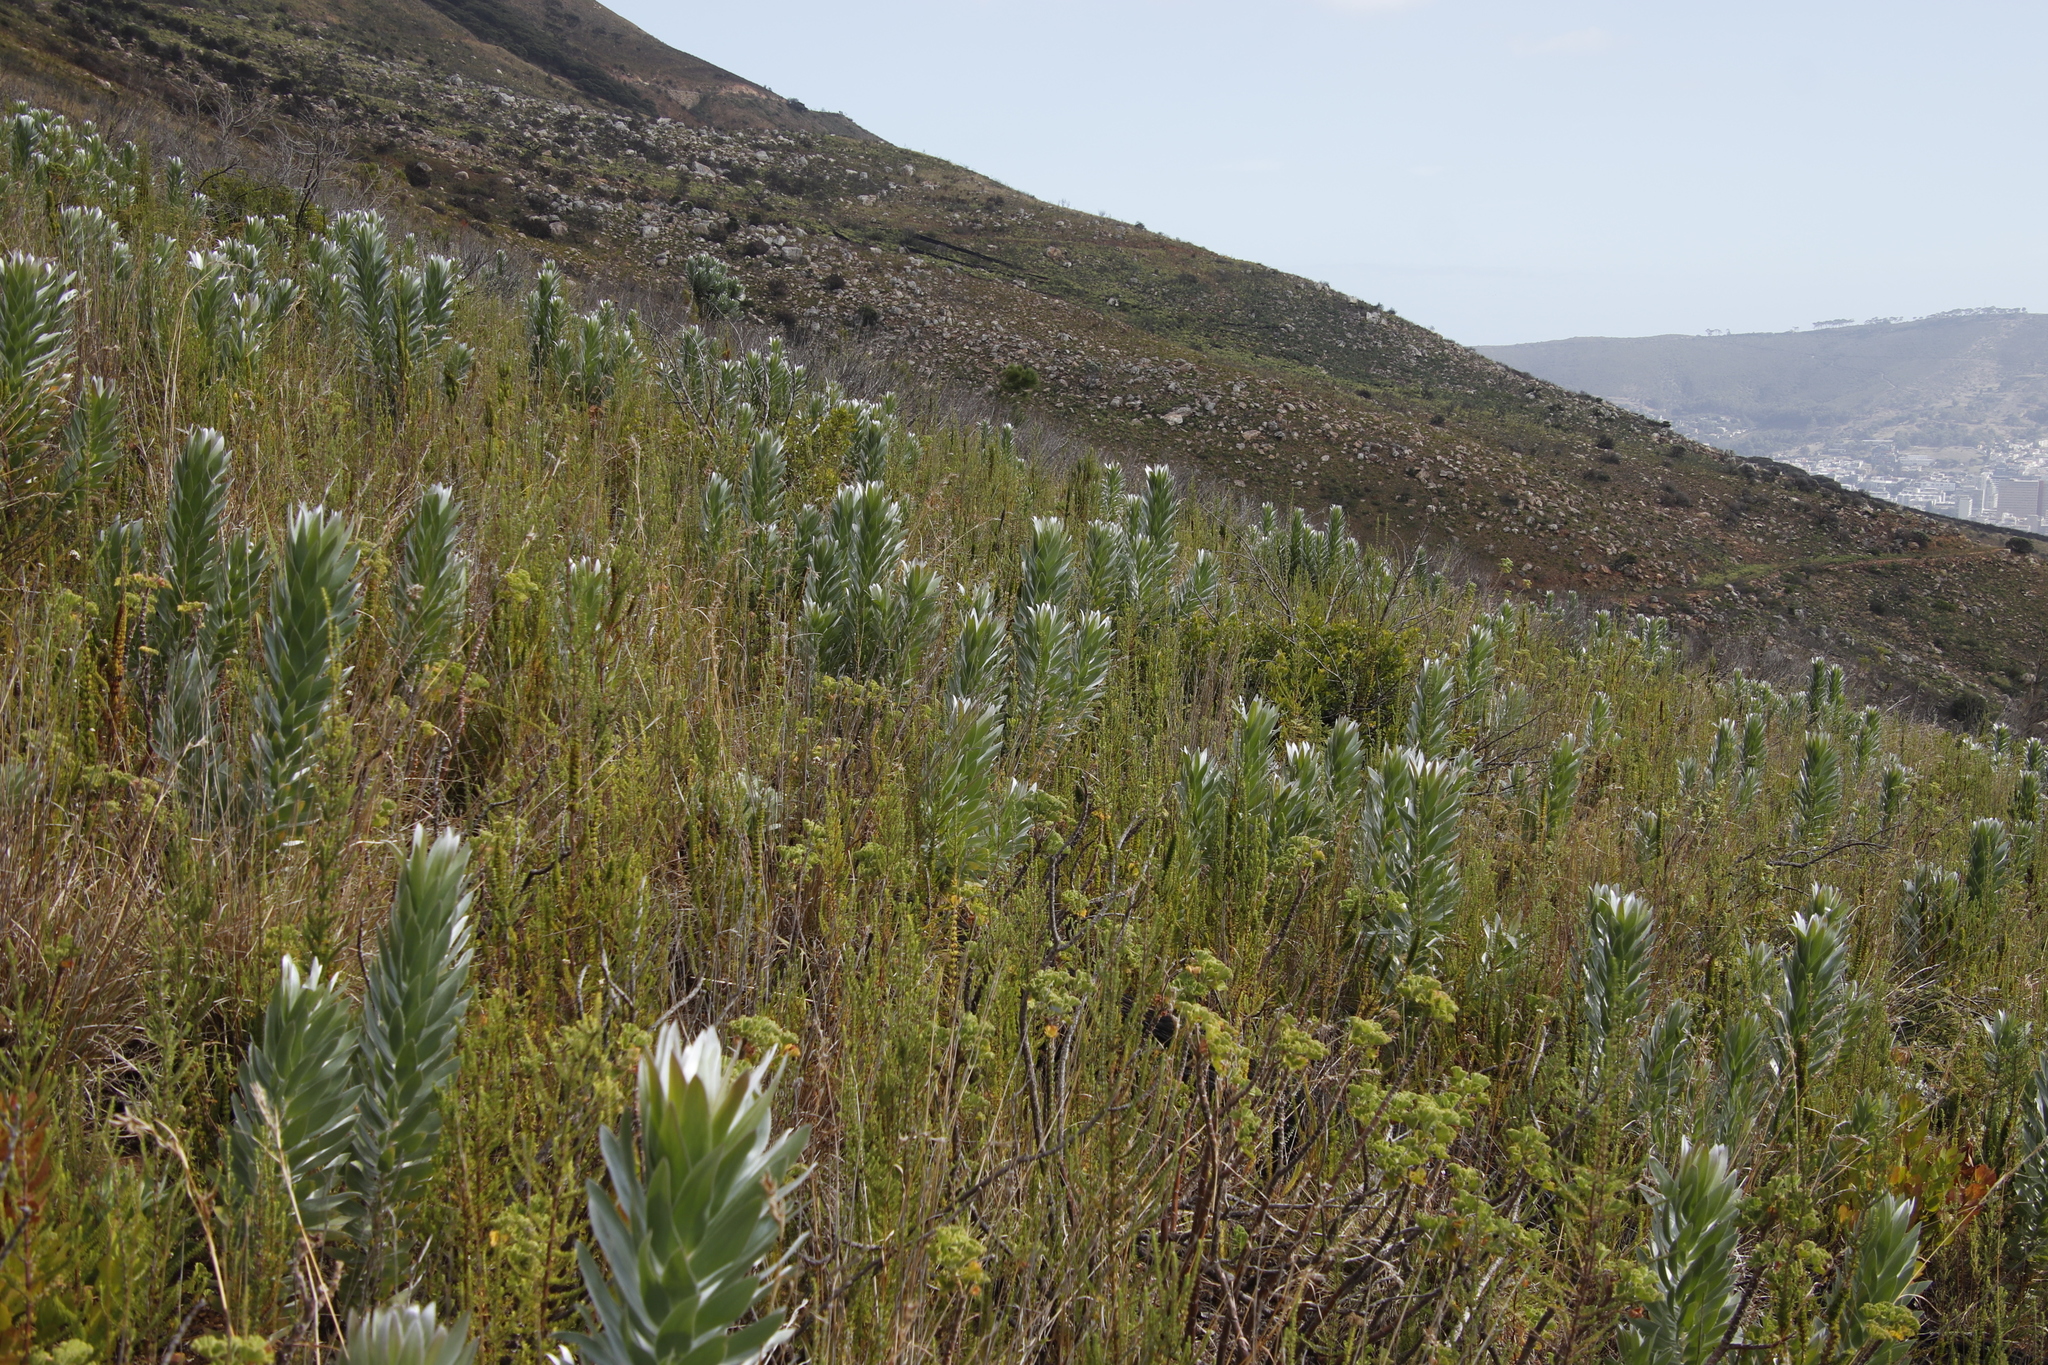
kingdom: Plantae
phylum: Tracheophyta
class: Magnoliopsida
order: Proteales
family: Proteaceae
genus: Leucadendron
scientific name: Leucadendron argenteum
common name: Cape silver tree
